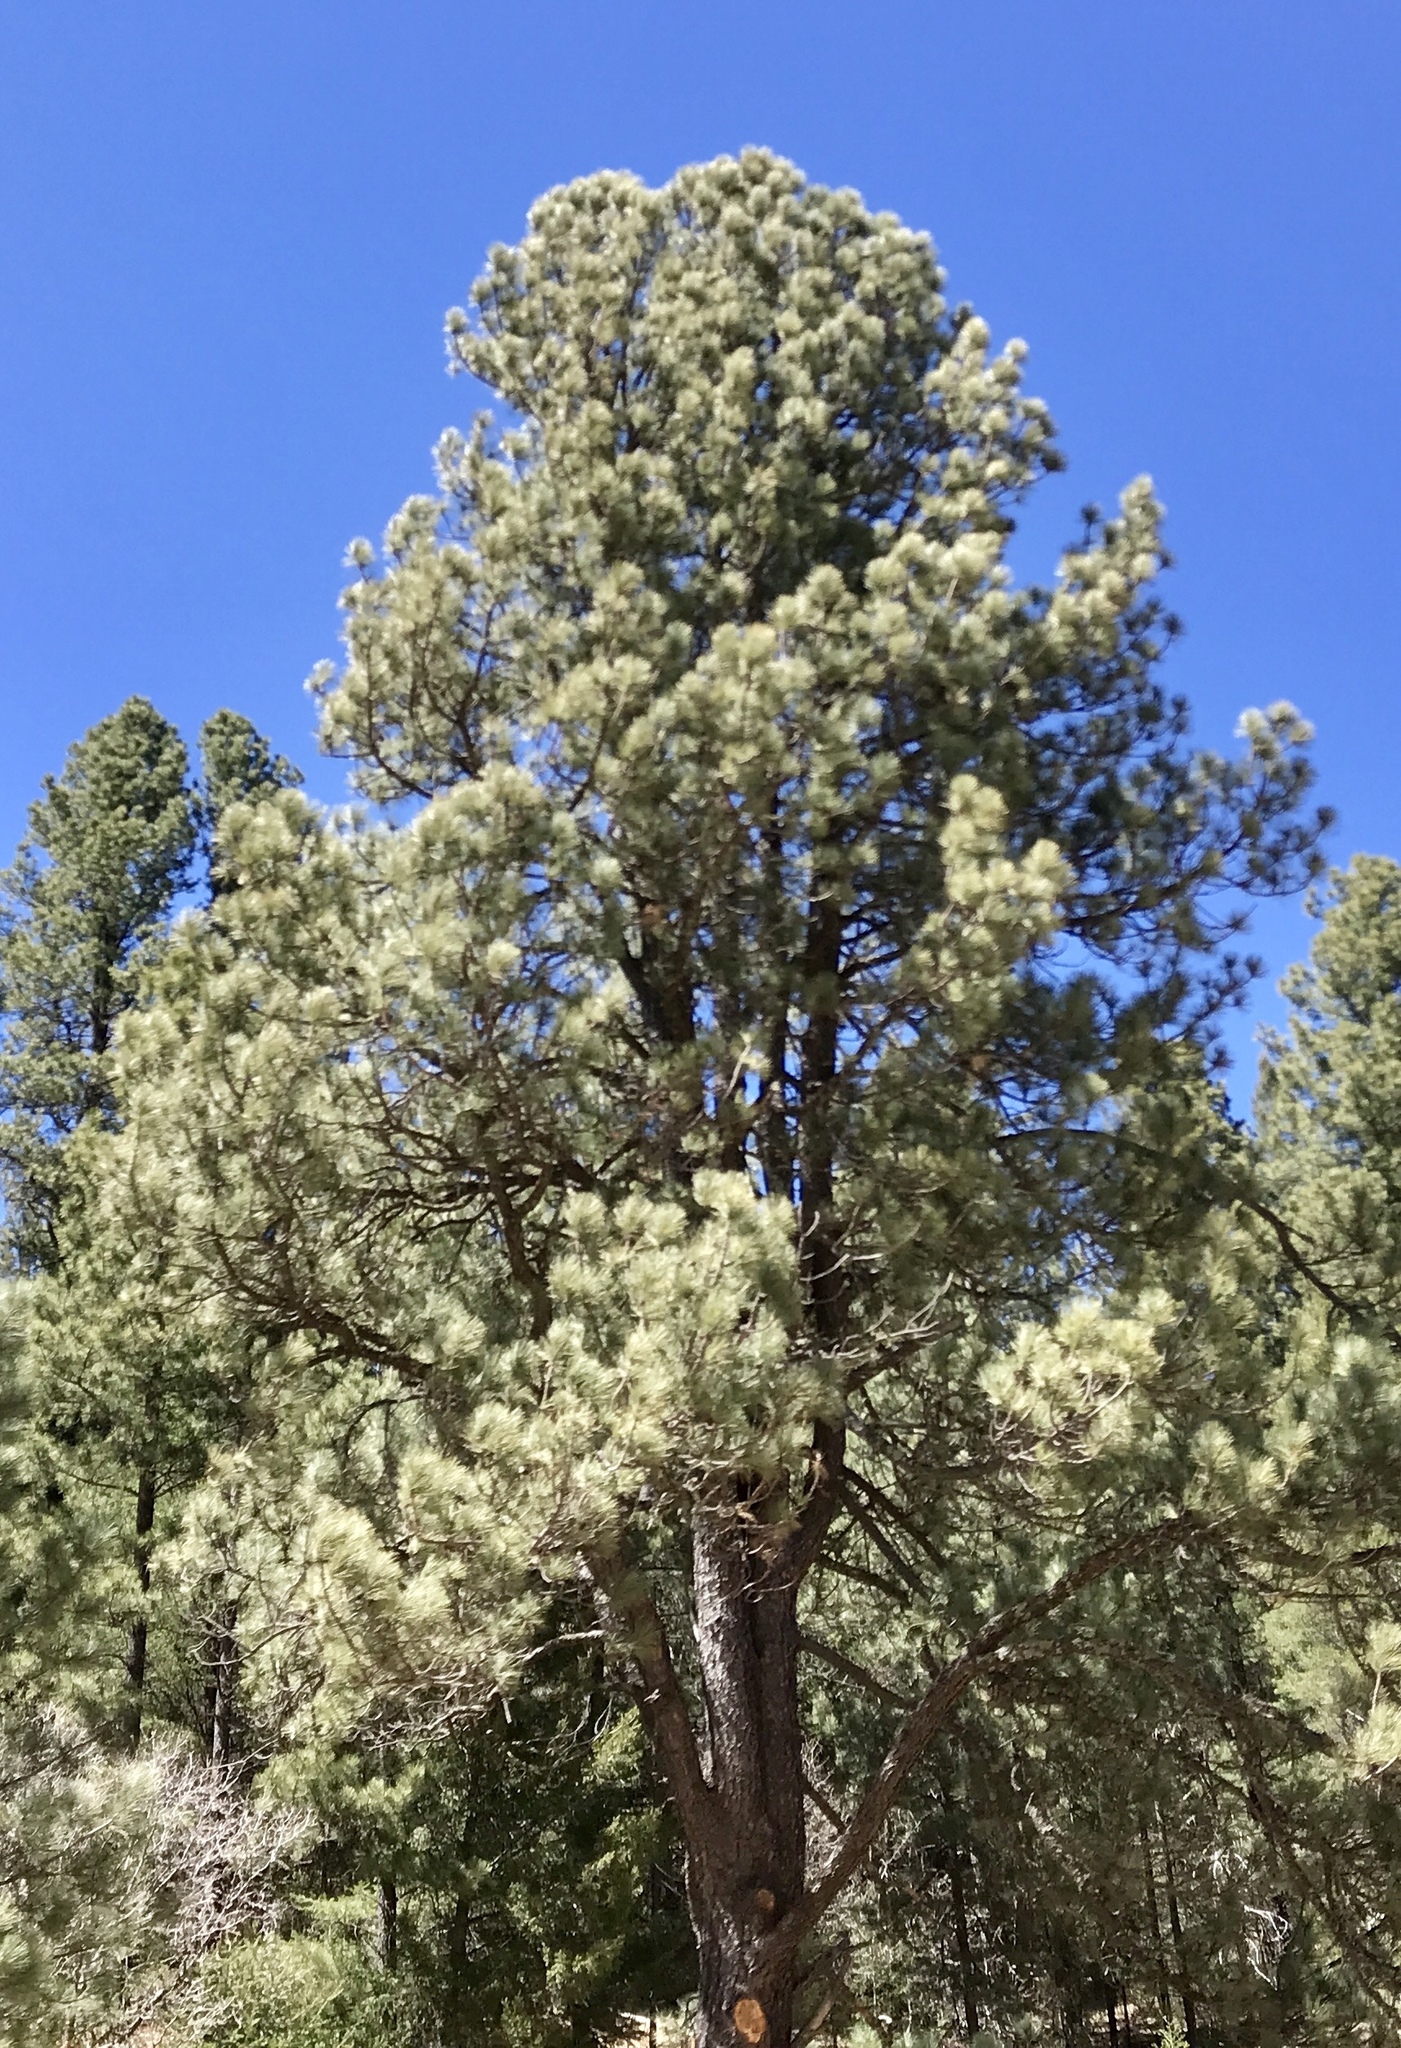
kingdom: Plantae
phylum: Tracheophyta
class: Pinopsida
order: Pinales
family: Pinaceae
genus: Pinus
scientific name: Pinus ponderosa
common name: Western yellow-pine
